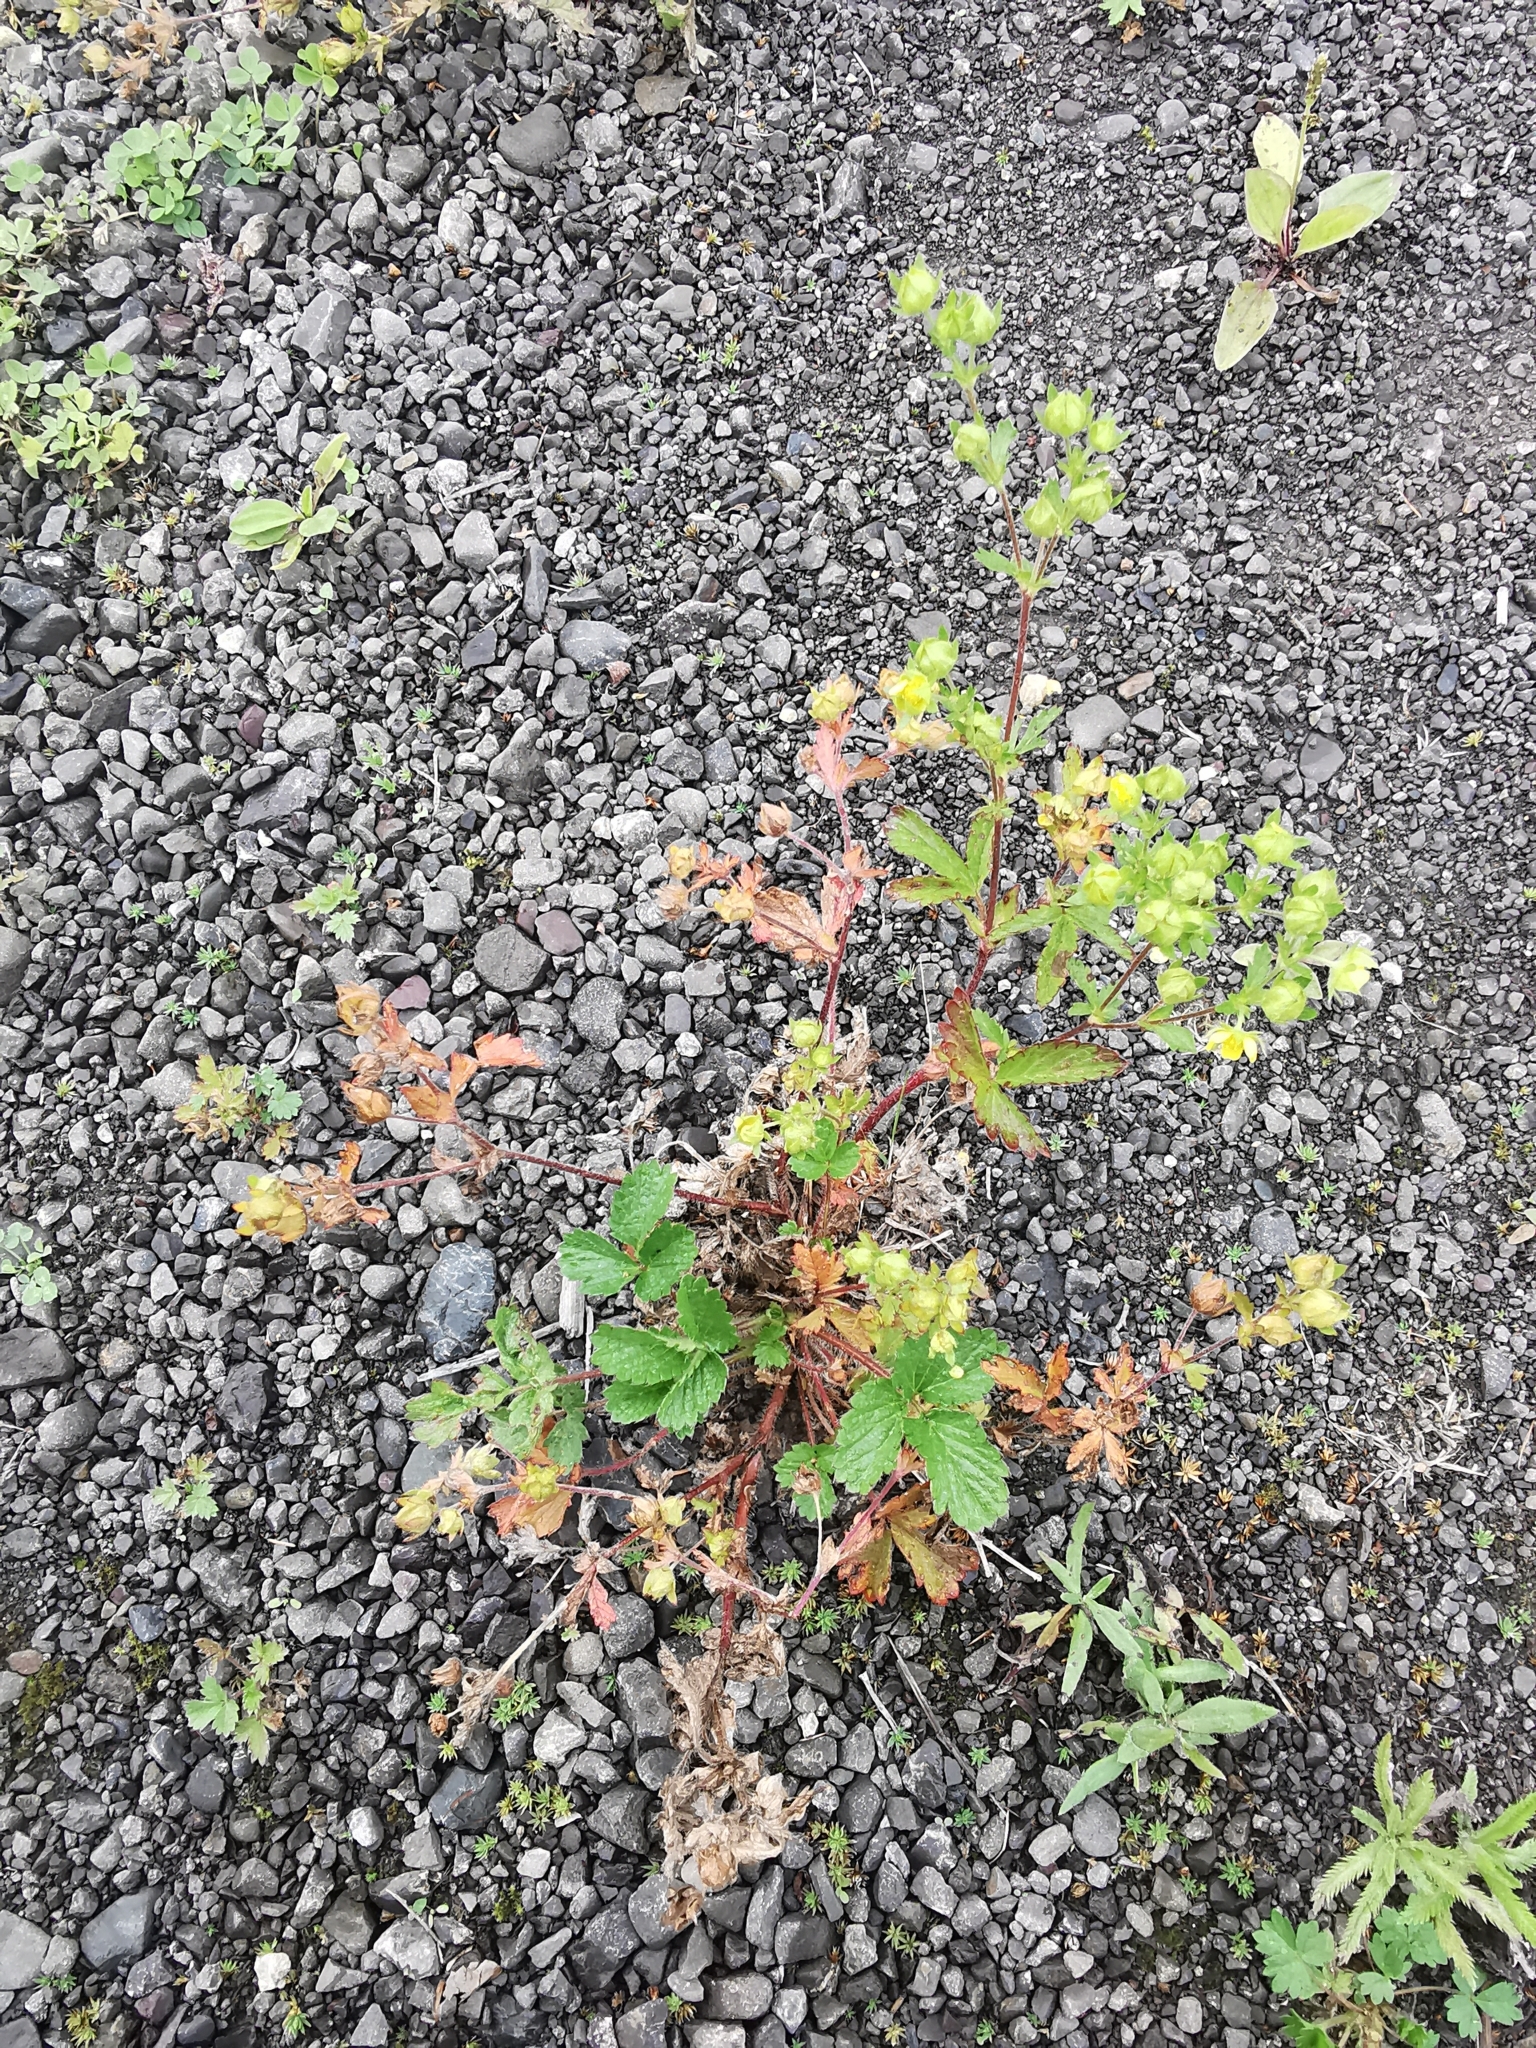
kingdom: Plantae
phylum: Tracheophyta
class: Magnoliopsida
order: Rosales
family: Rosaceae
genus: Potentilla
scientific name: Potentilla norvegica
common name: Ternate-leaved cinquefoil
